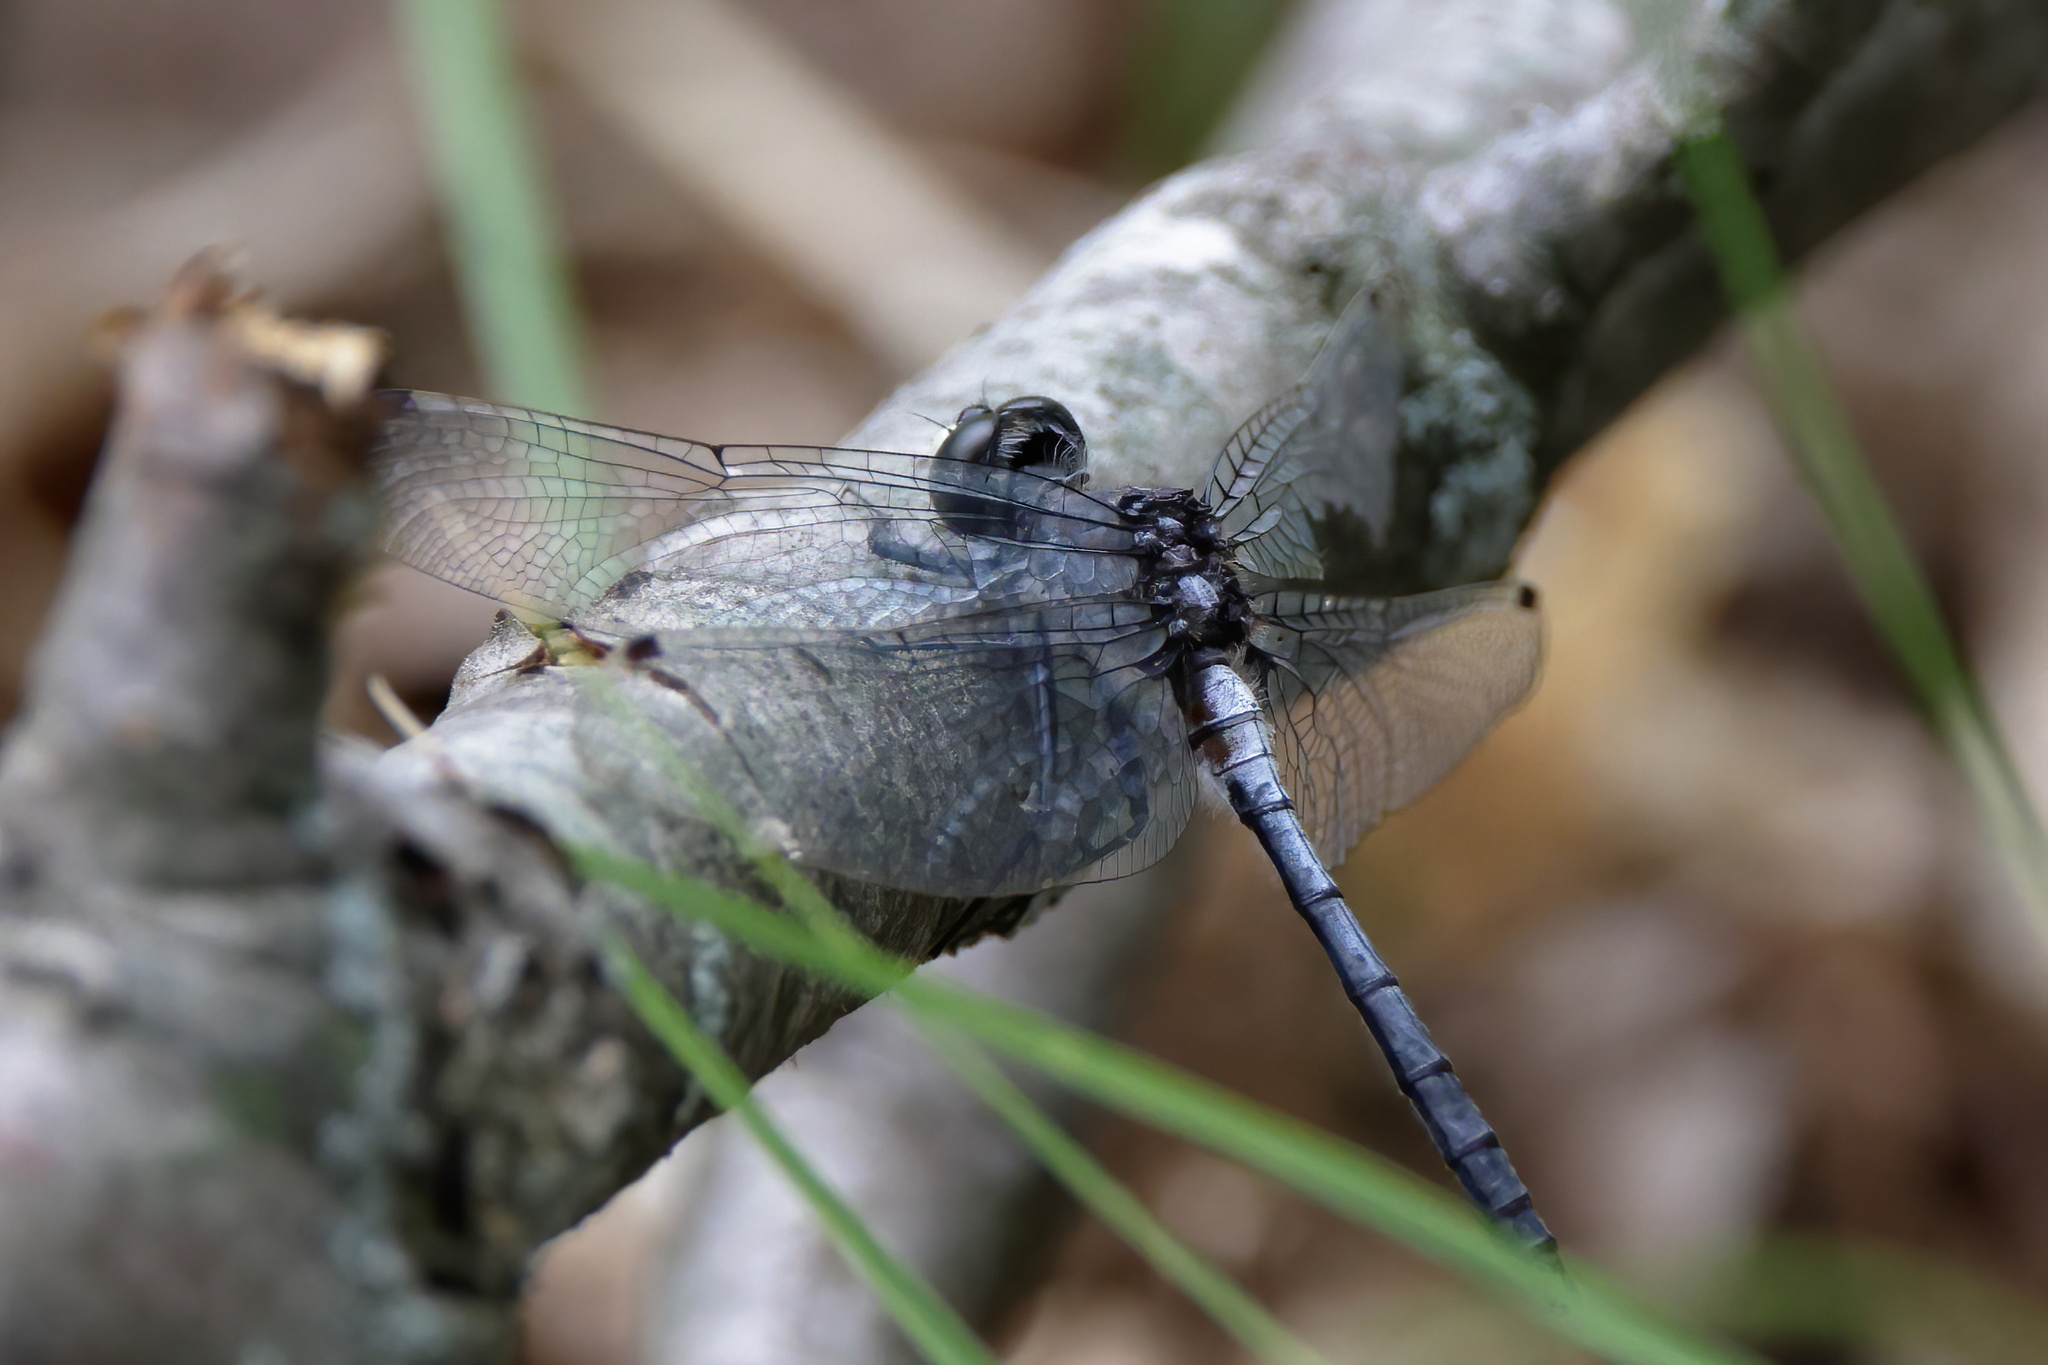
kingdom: Animalia
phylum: Arthropoda
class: Insecta
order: Odonata
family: Libellulidae
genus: Leucorrhinia
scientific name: Leucorrhinia proxima
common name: Belted whiteface
